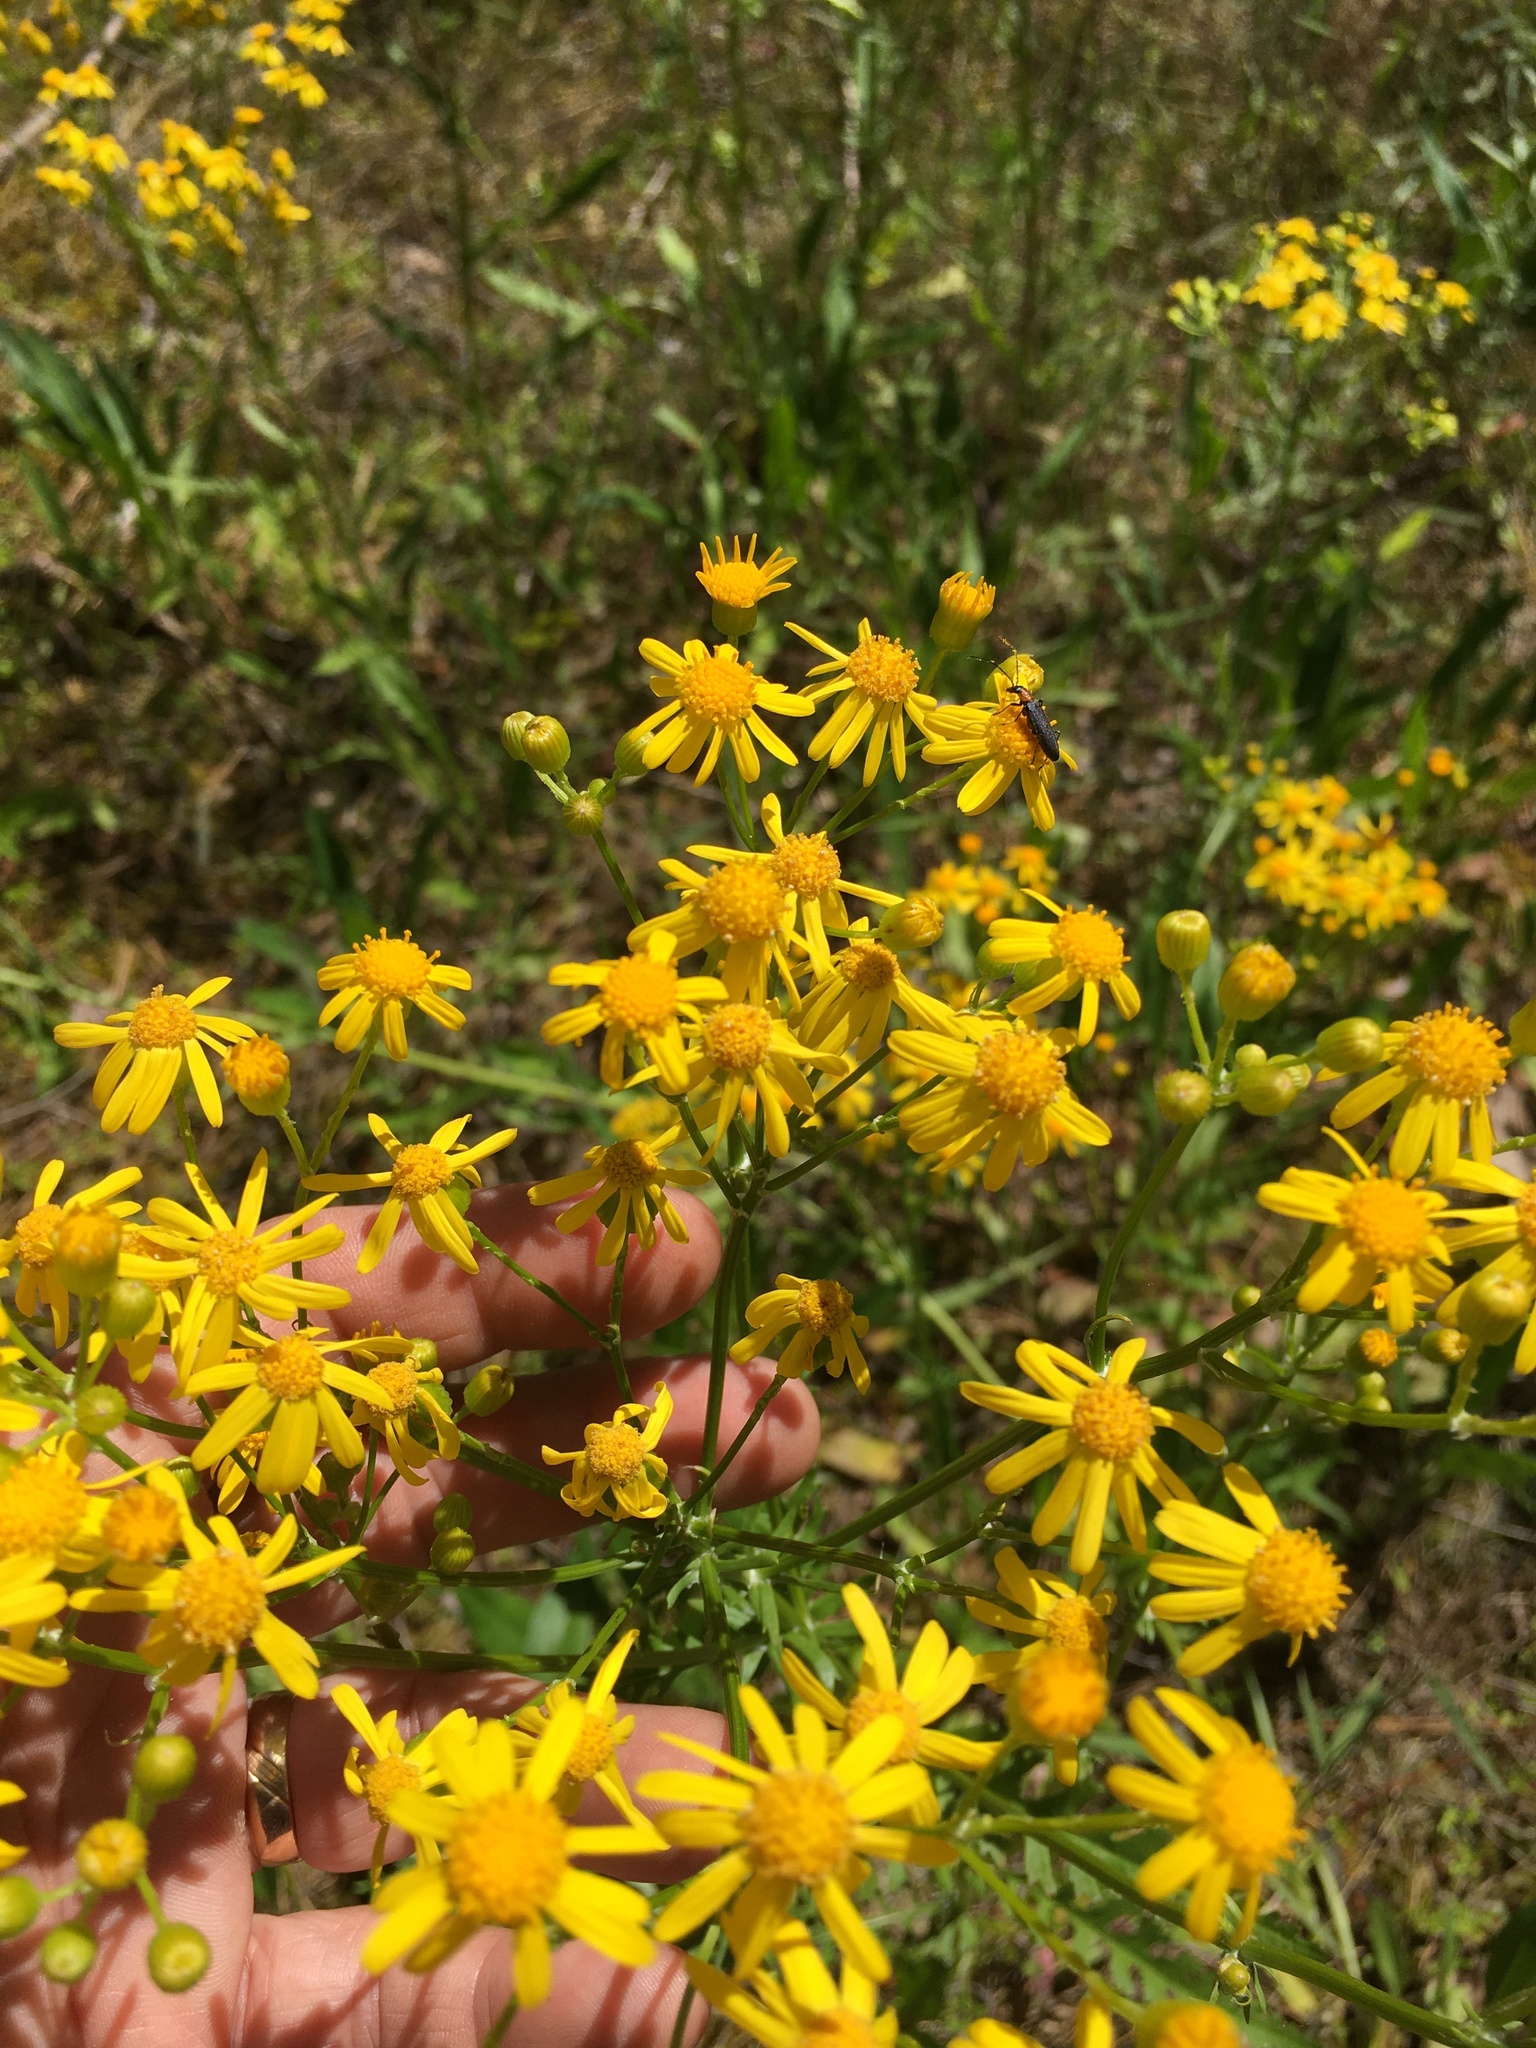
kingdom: Plantae
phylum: Tracheophyta
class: Magnoliopsida
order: Asterales
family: Asteraceae
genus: Packera
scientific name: Packera anonyma
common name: Small ragwort
